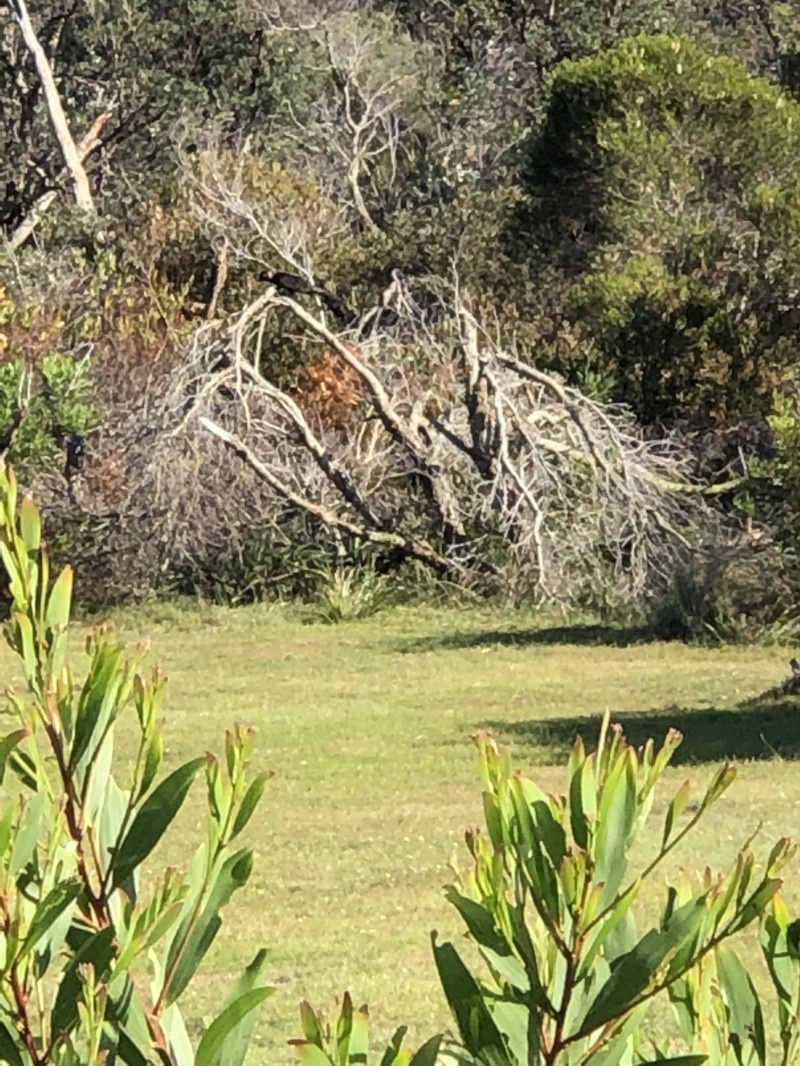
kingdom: Animalia
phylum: Chordata
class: Aves
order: Psittaciformes
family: Cacatuidae
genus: Zanda
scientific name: Zanda funerea
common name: Yellow-tailed black-cockatoo
